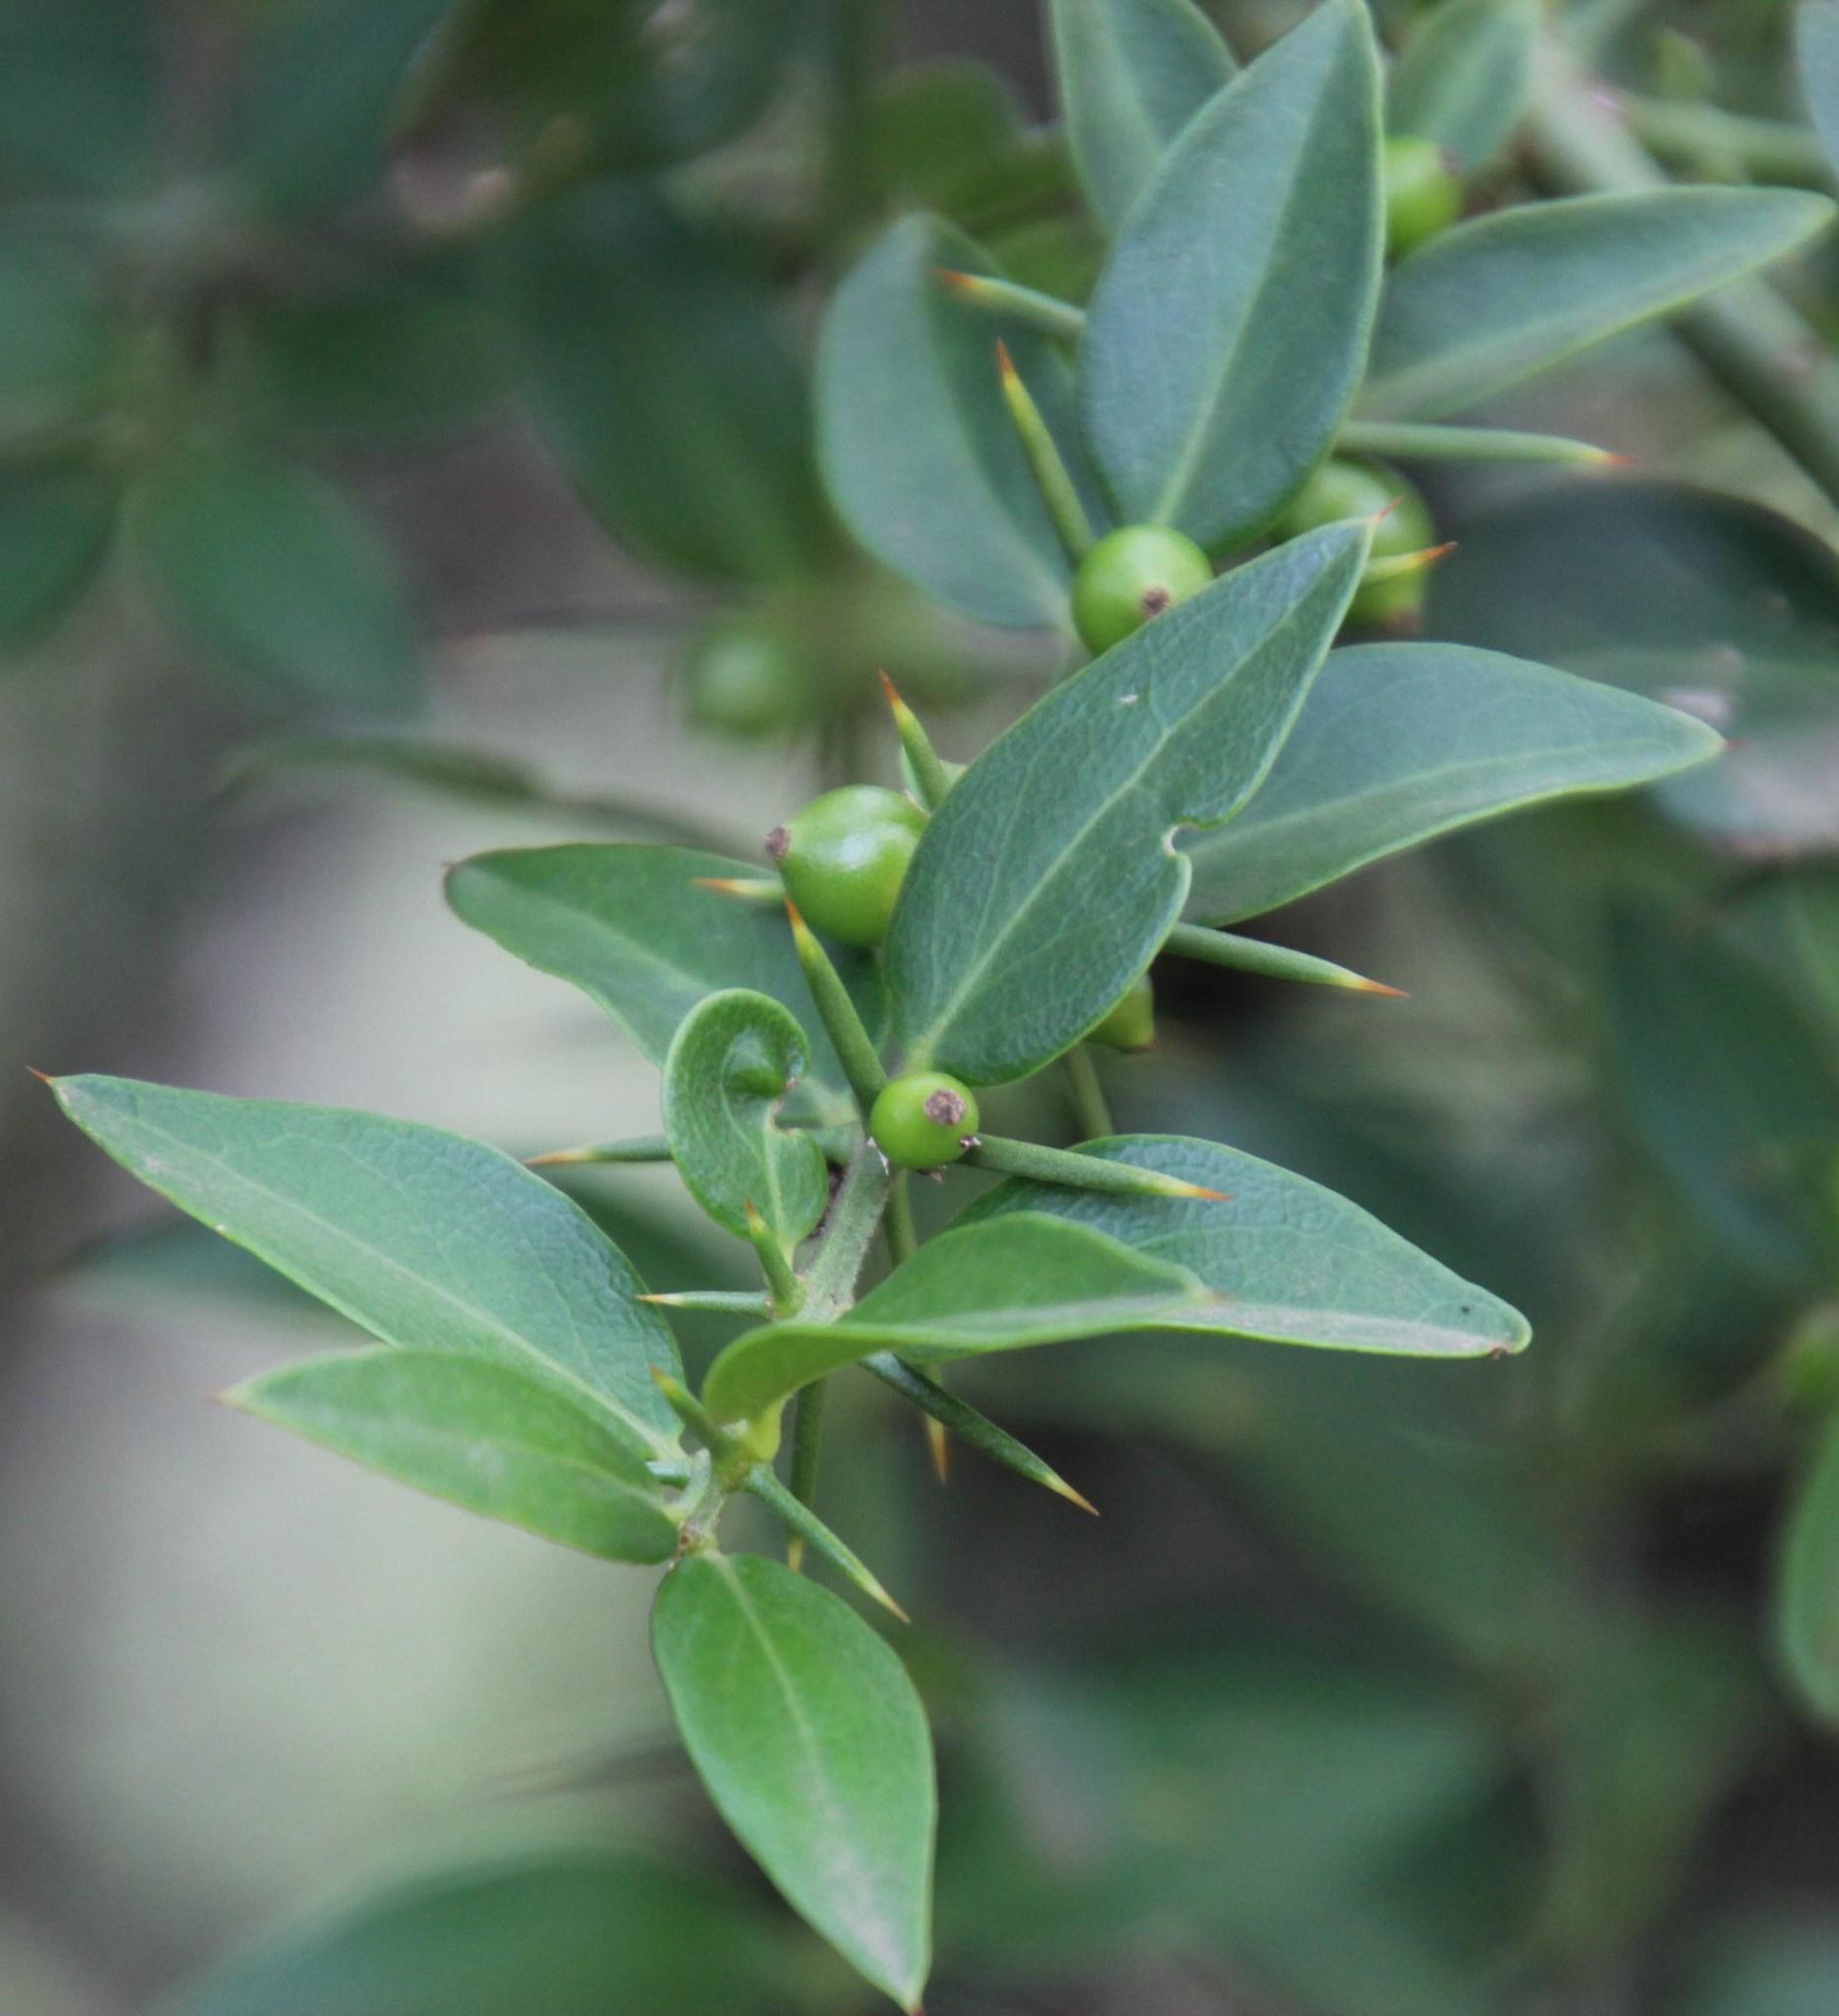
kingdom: Plantae
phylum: Tracheophyta
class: Magnoliopsida
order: Brassicales
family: Salvadoraceae
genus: Azima
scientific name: Azima tetracantha
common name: Needle bush
